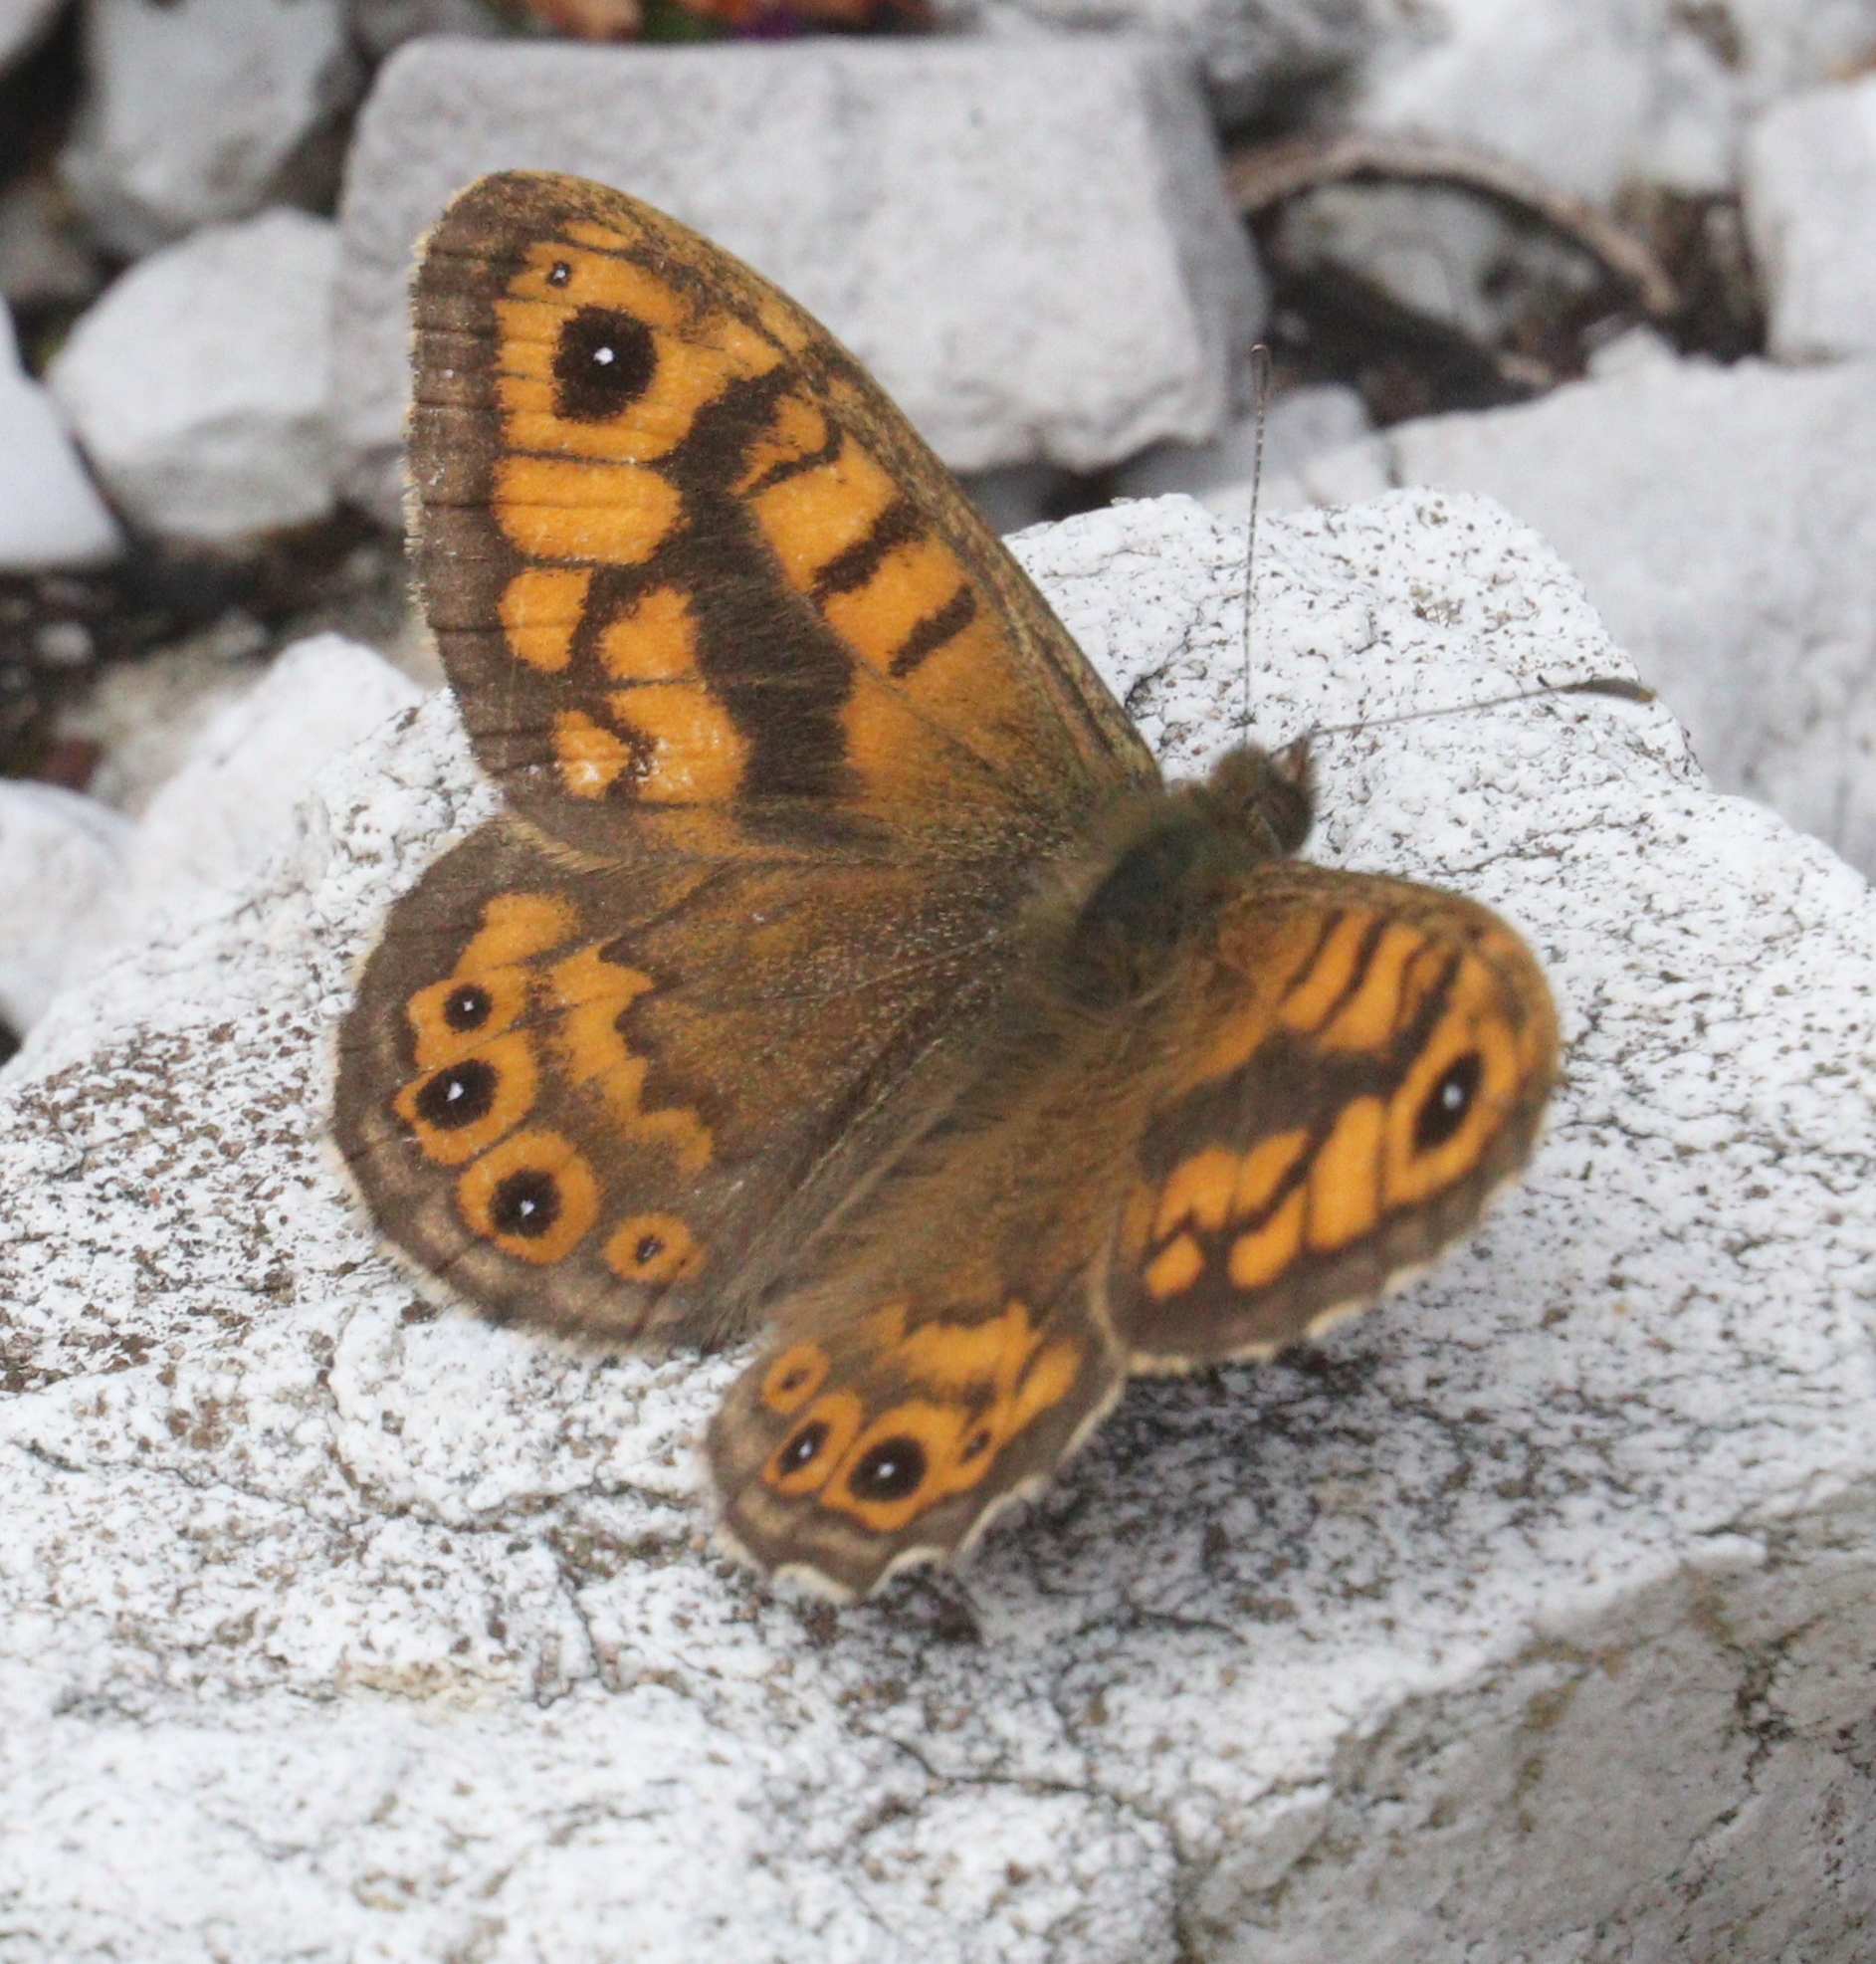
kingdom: Animalia
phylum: Arthropoda
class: Insecta
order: Lepidoptera
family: Nymphalidae
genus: Pararge
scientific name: Pararge Lasiommata megera
